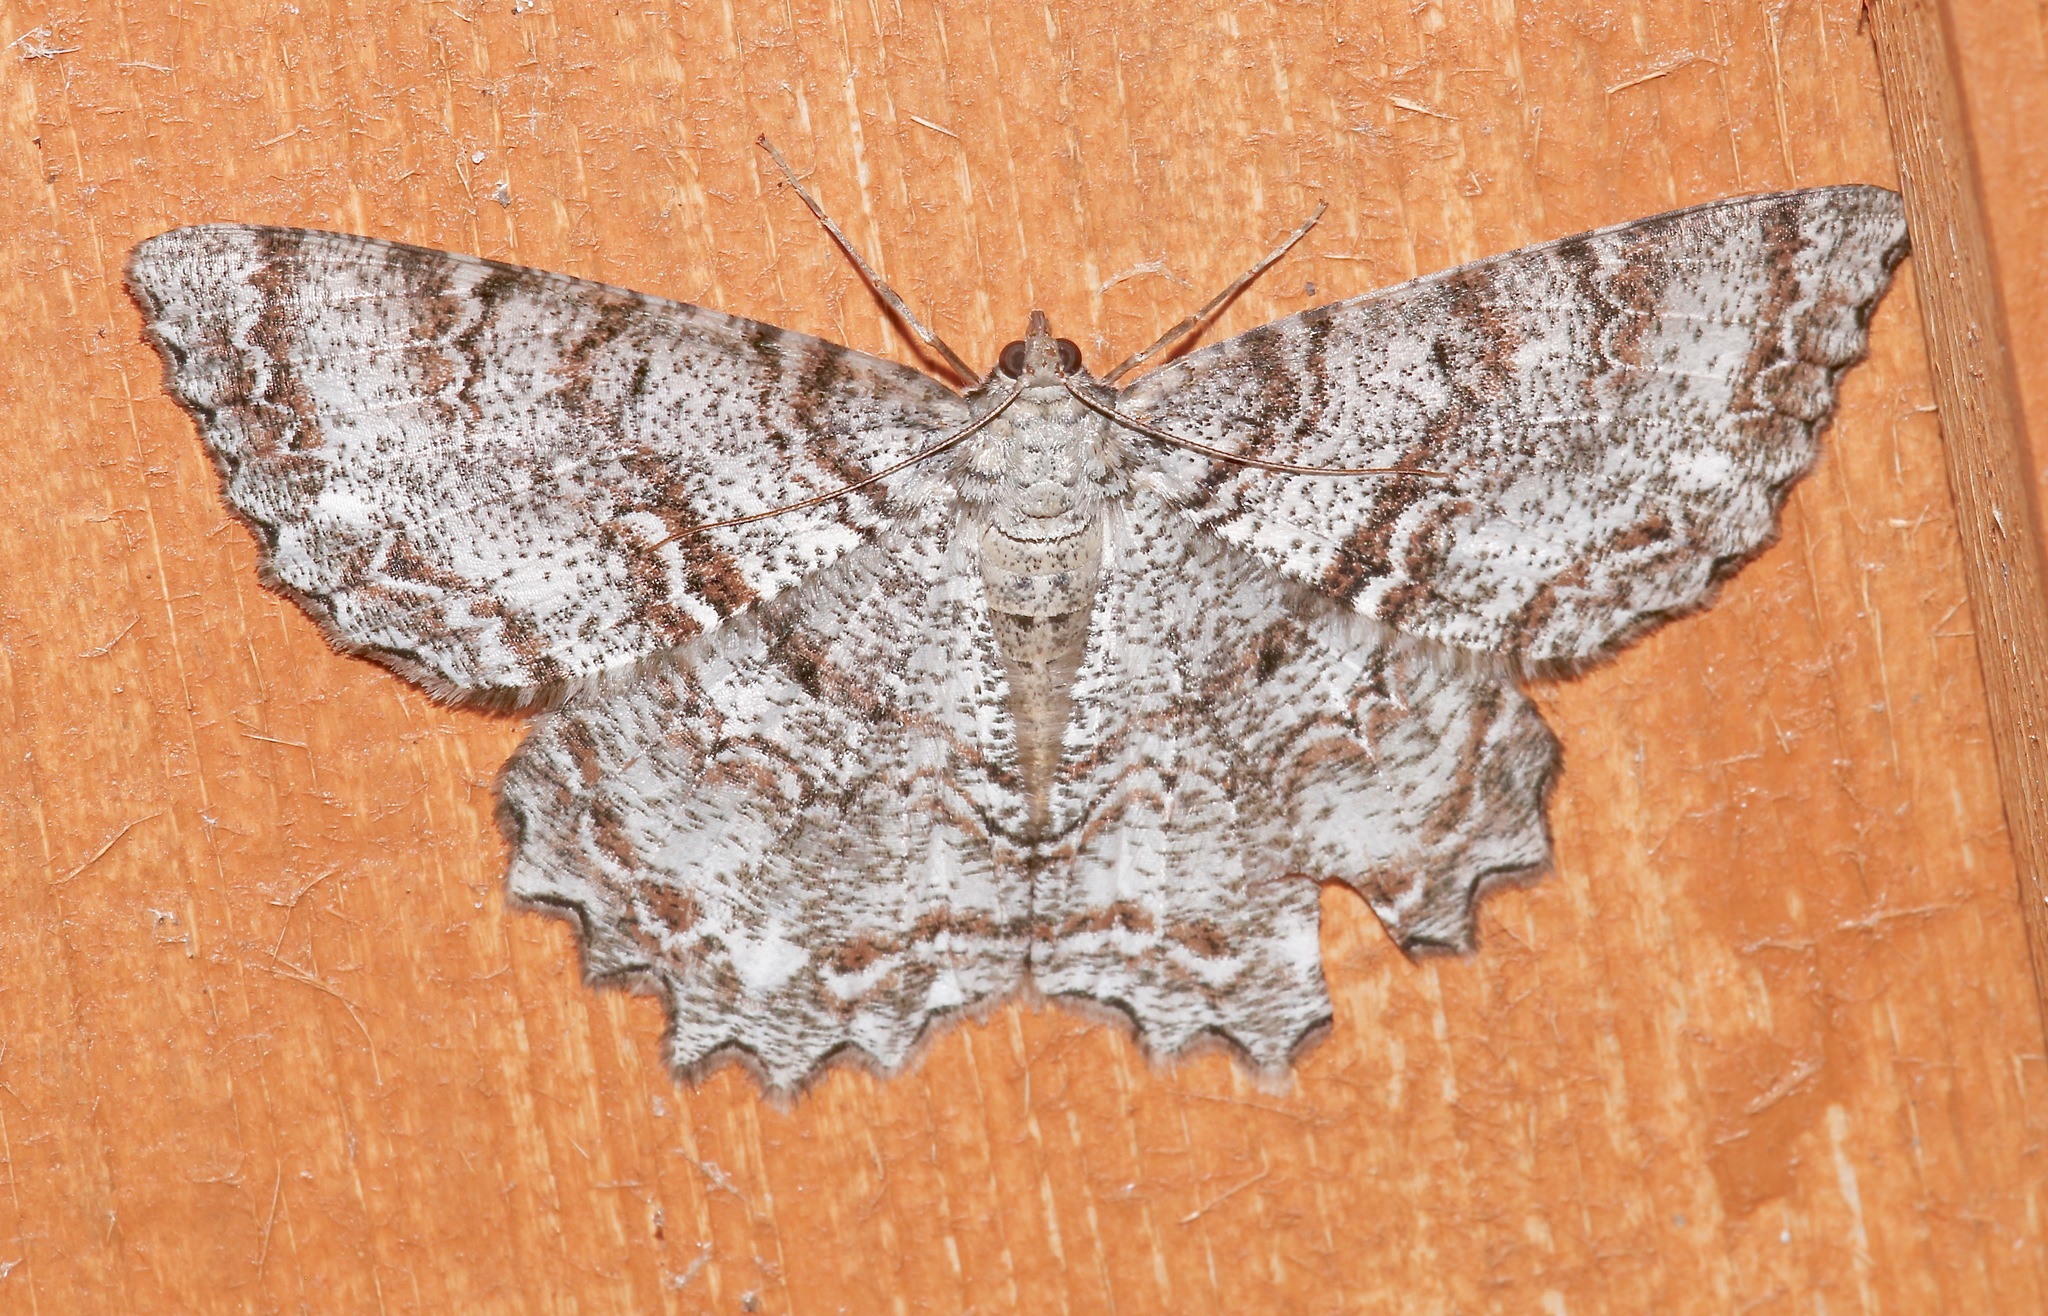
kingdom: Animalia
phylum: Arthropoda
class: Insecta
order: Lepidoptera
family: Geometridae
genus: Epimecis
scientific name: Epimecis hortaria
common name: Tulip-tree beauty
